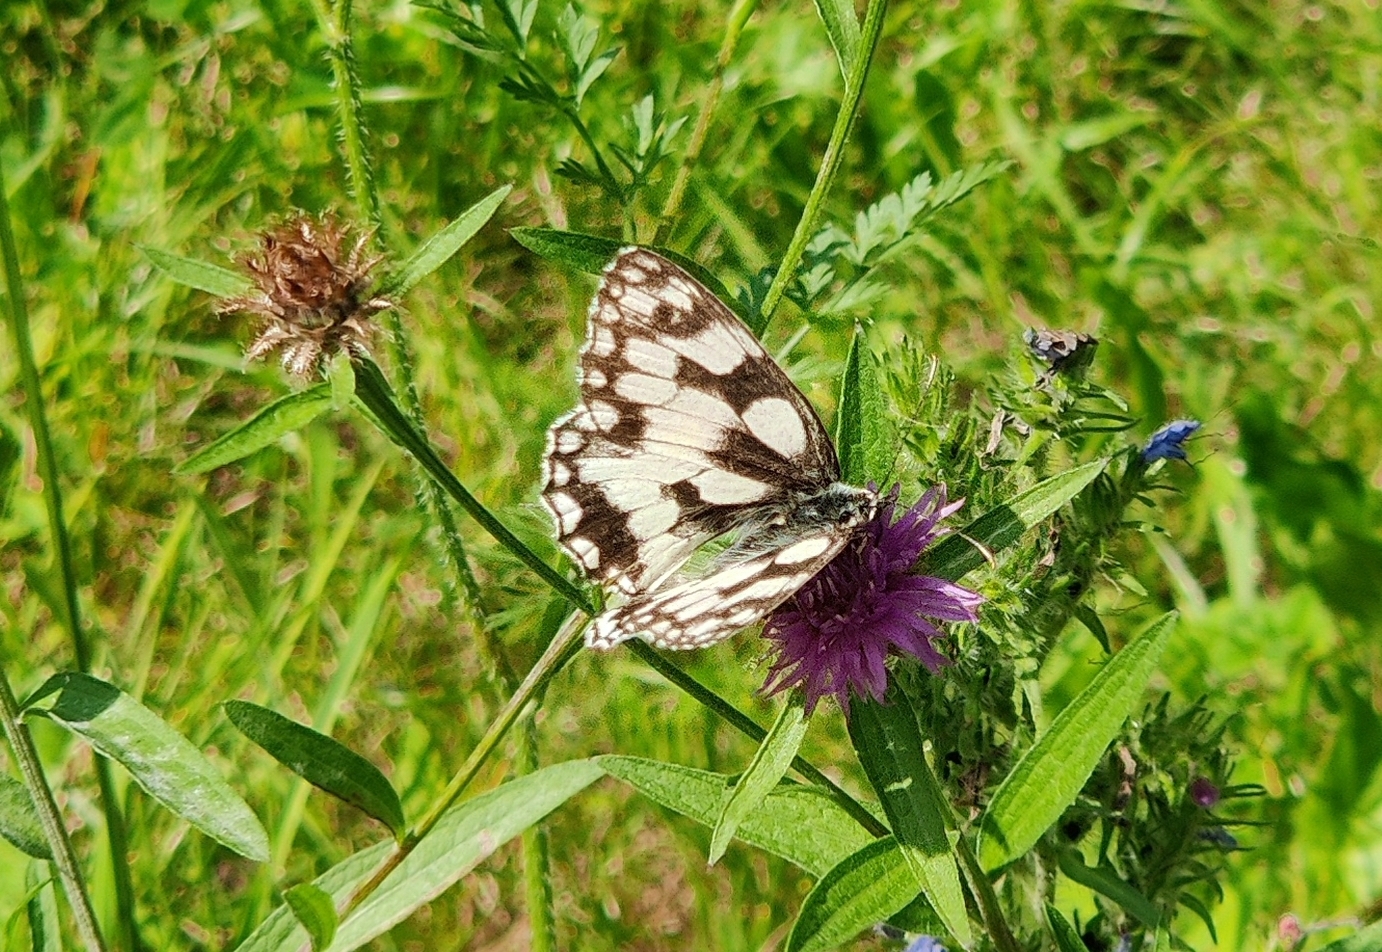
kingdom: Animalia
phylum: Arthropoda
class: Insecta
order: Lepidoptera
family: Nymphalidae
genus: Melanargia
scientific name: Melanargia galathea
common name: Marbled white
